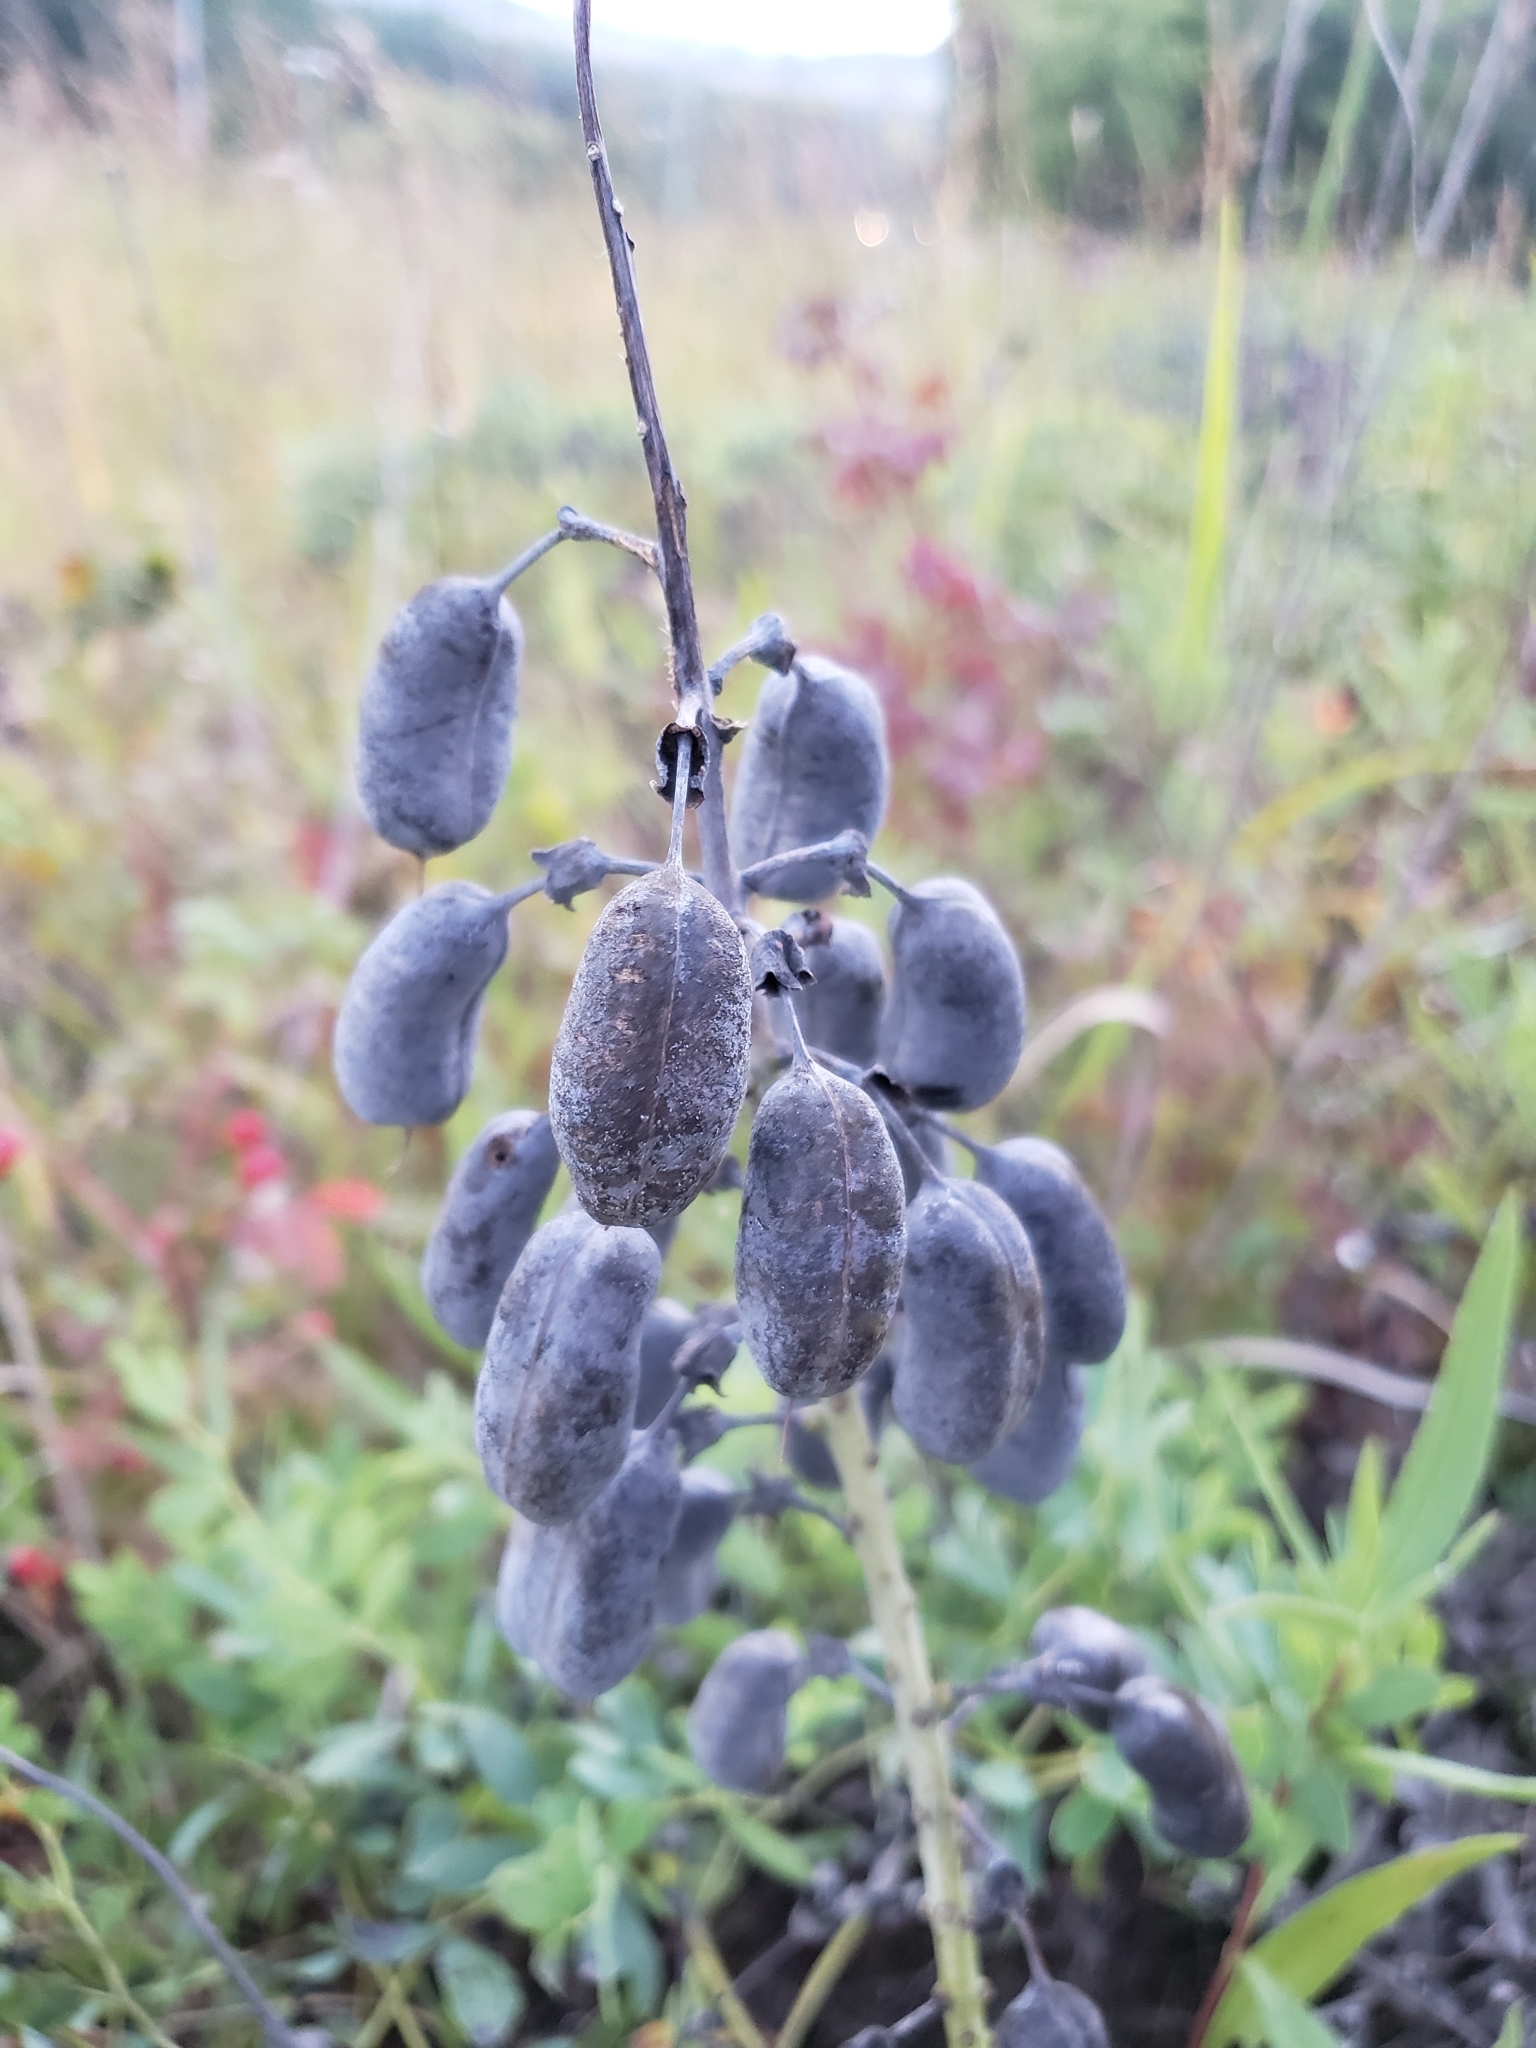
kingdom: Plantae
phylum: Tracheophyta
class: Magnoliopsida
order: Fabales
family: Fabaceae
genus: Baptisia
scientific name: Baptisia alba
